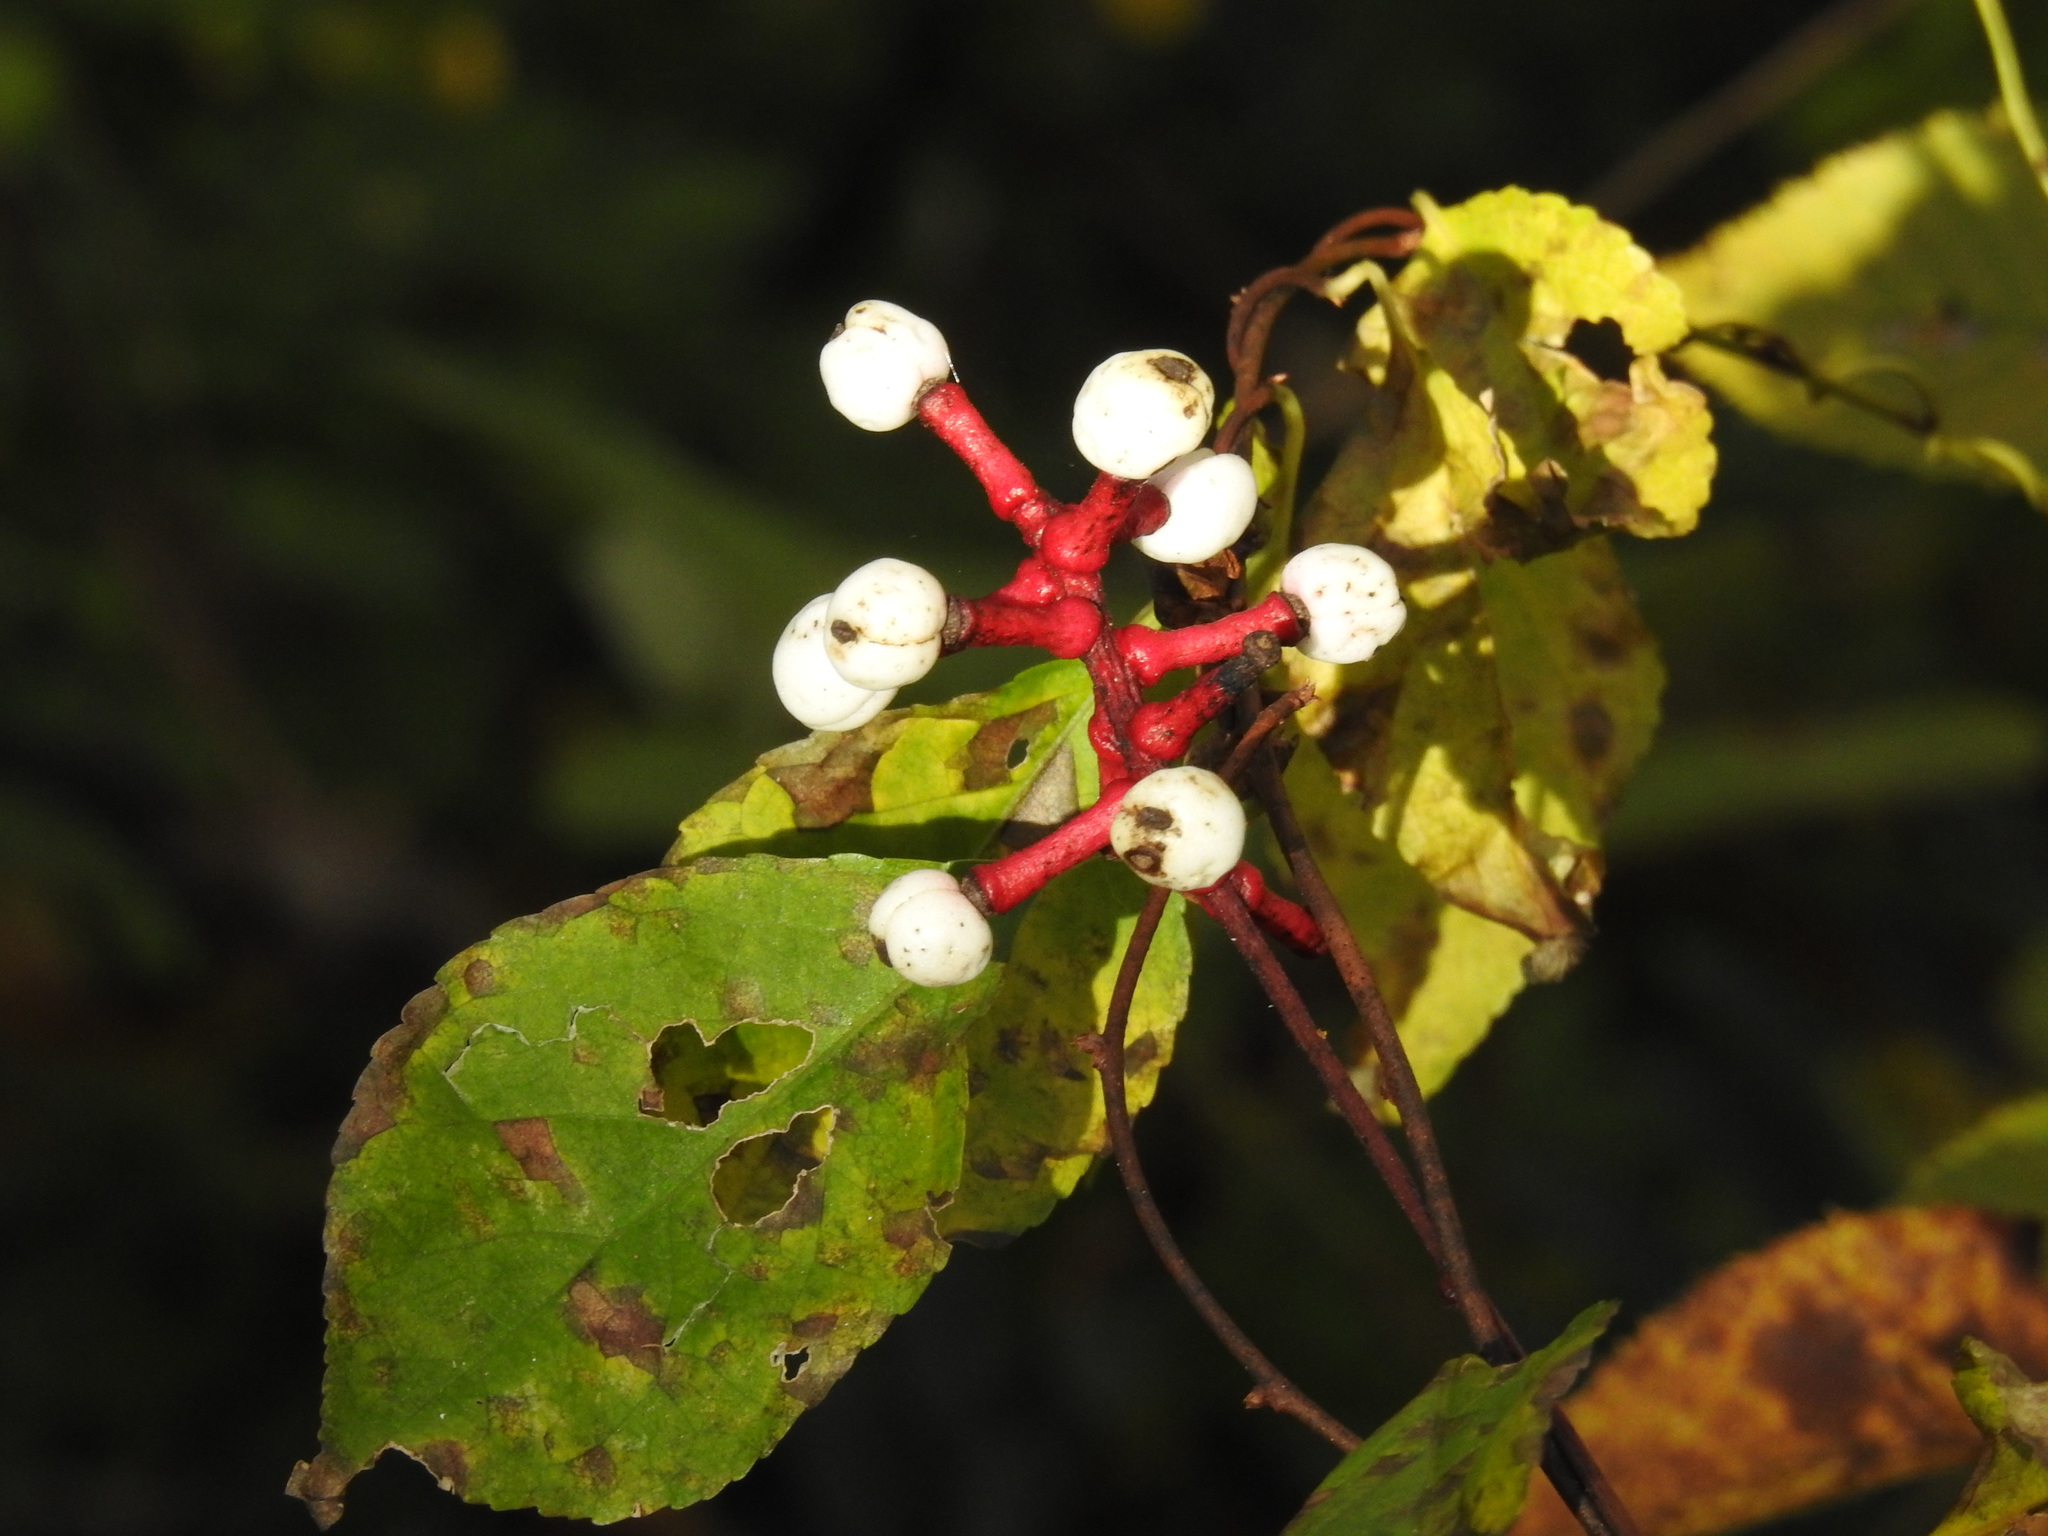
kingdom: Plantae
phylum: Tracheophyta
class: Magnoliopsida
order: Ranunculales
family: Ranunculaceae
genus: Actaea
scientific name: Actaea pachypoda
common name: Doll's-eyes
